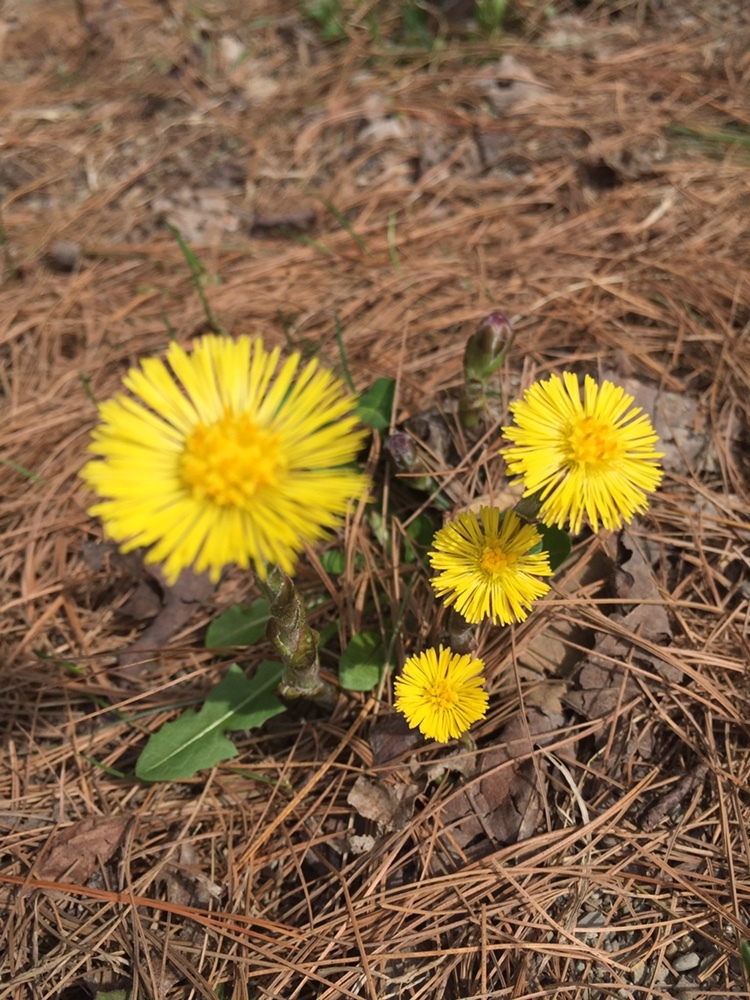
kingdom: Plantae
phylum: Tracheophyta
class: Magnoliopsida
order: Asterales
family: Asteraceae
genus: Tussilago
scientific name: Tussilago farfara
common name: Coltsfoot
